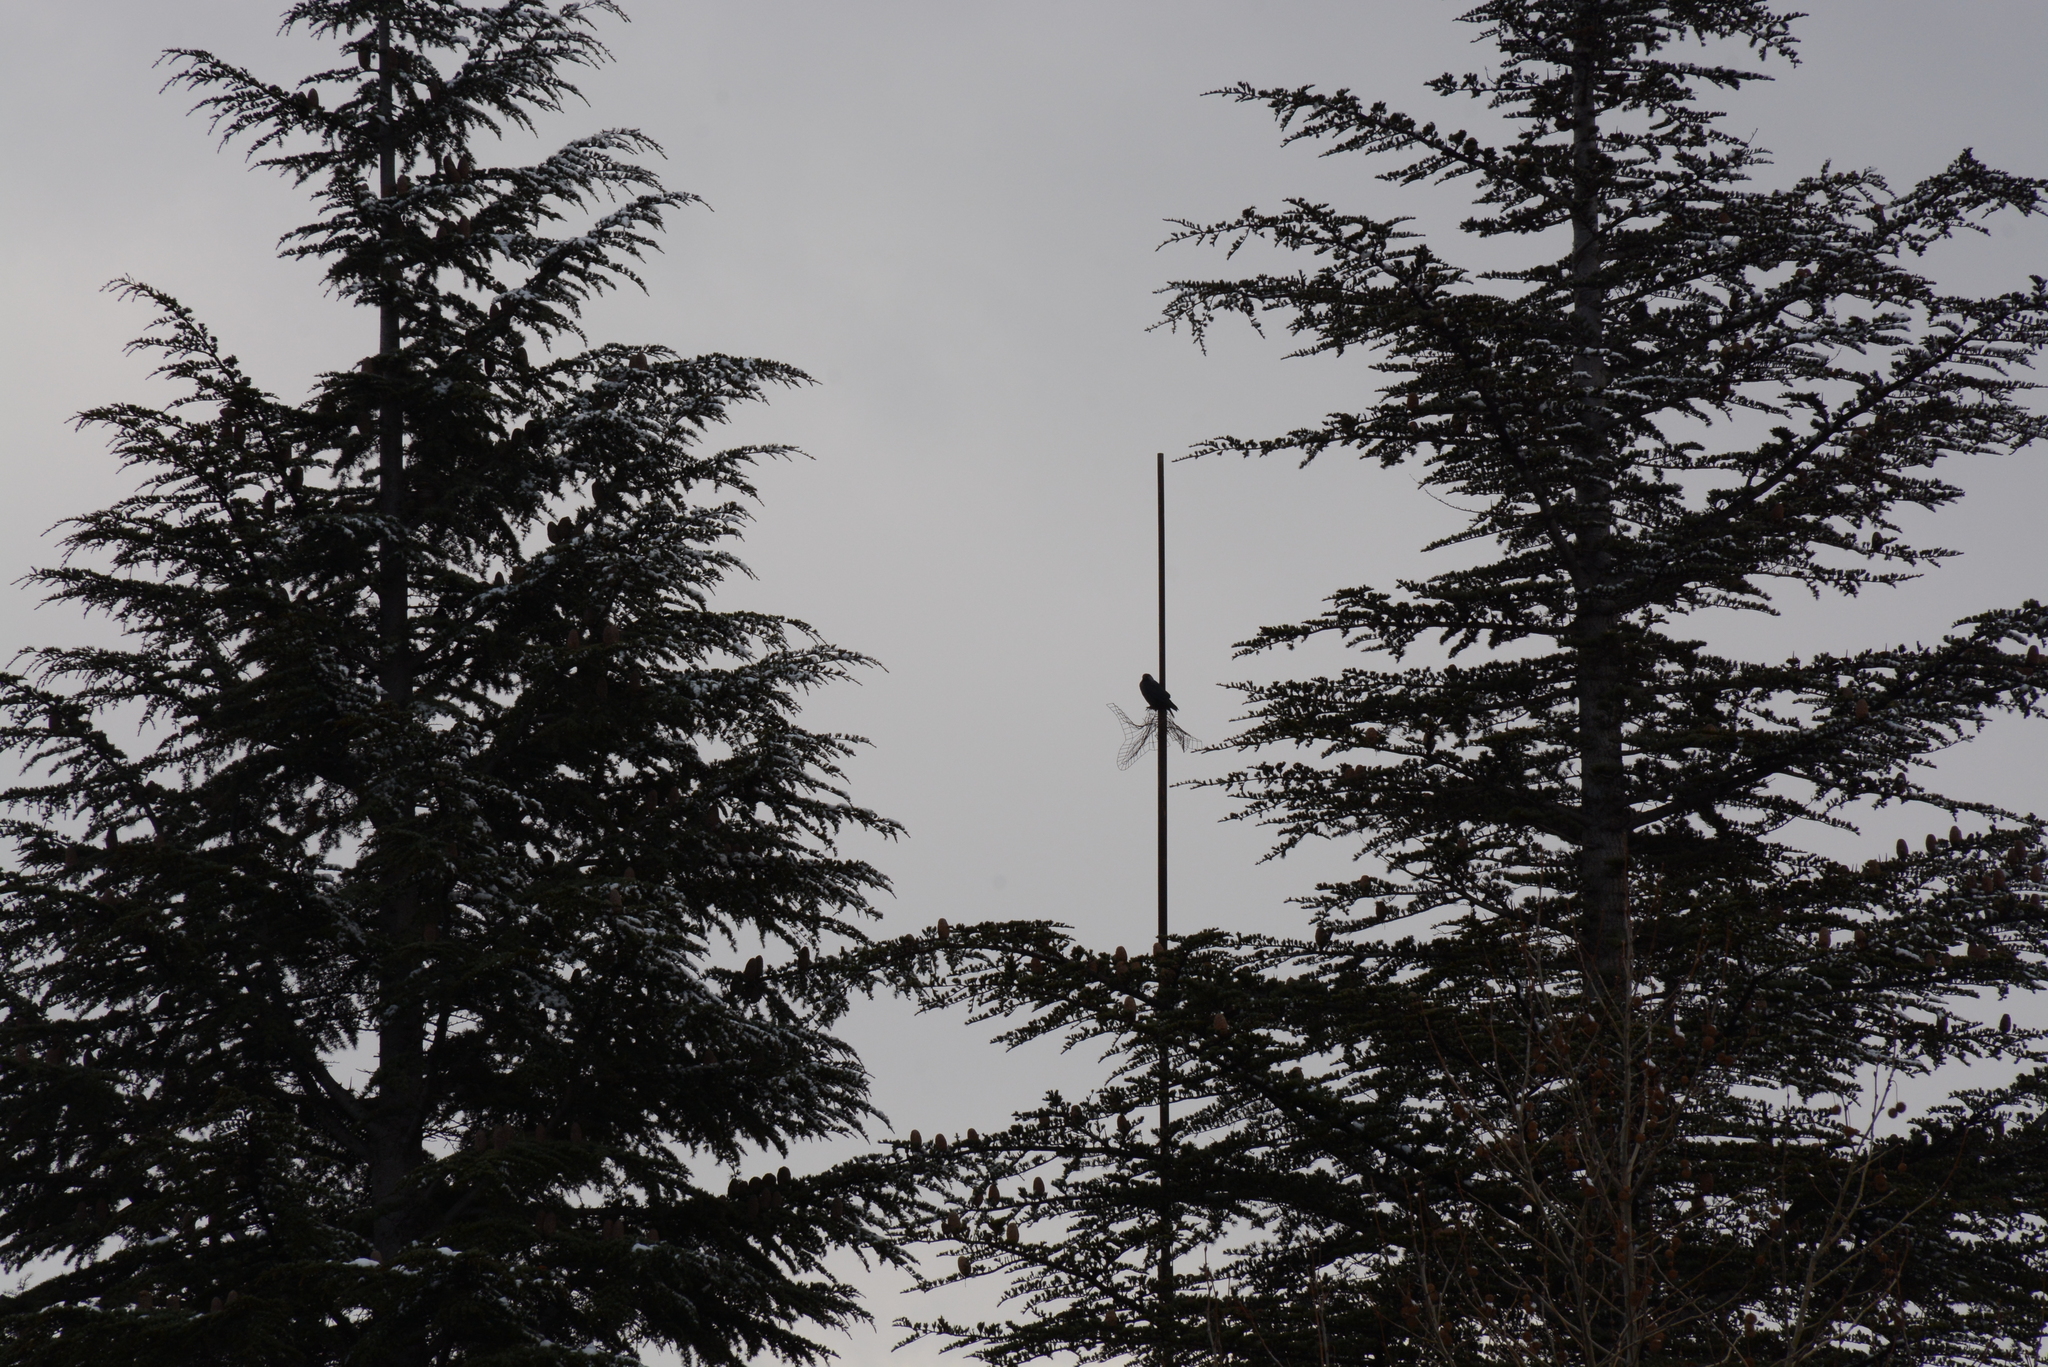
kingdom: Animalia
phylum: Chordata
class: Aves
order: Passeriformes
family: Corvidae
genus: Coloeus
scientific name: Coloeus monedula
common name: Western jackdaw
